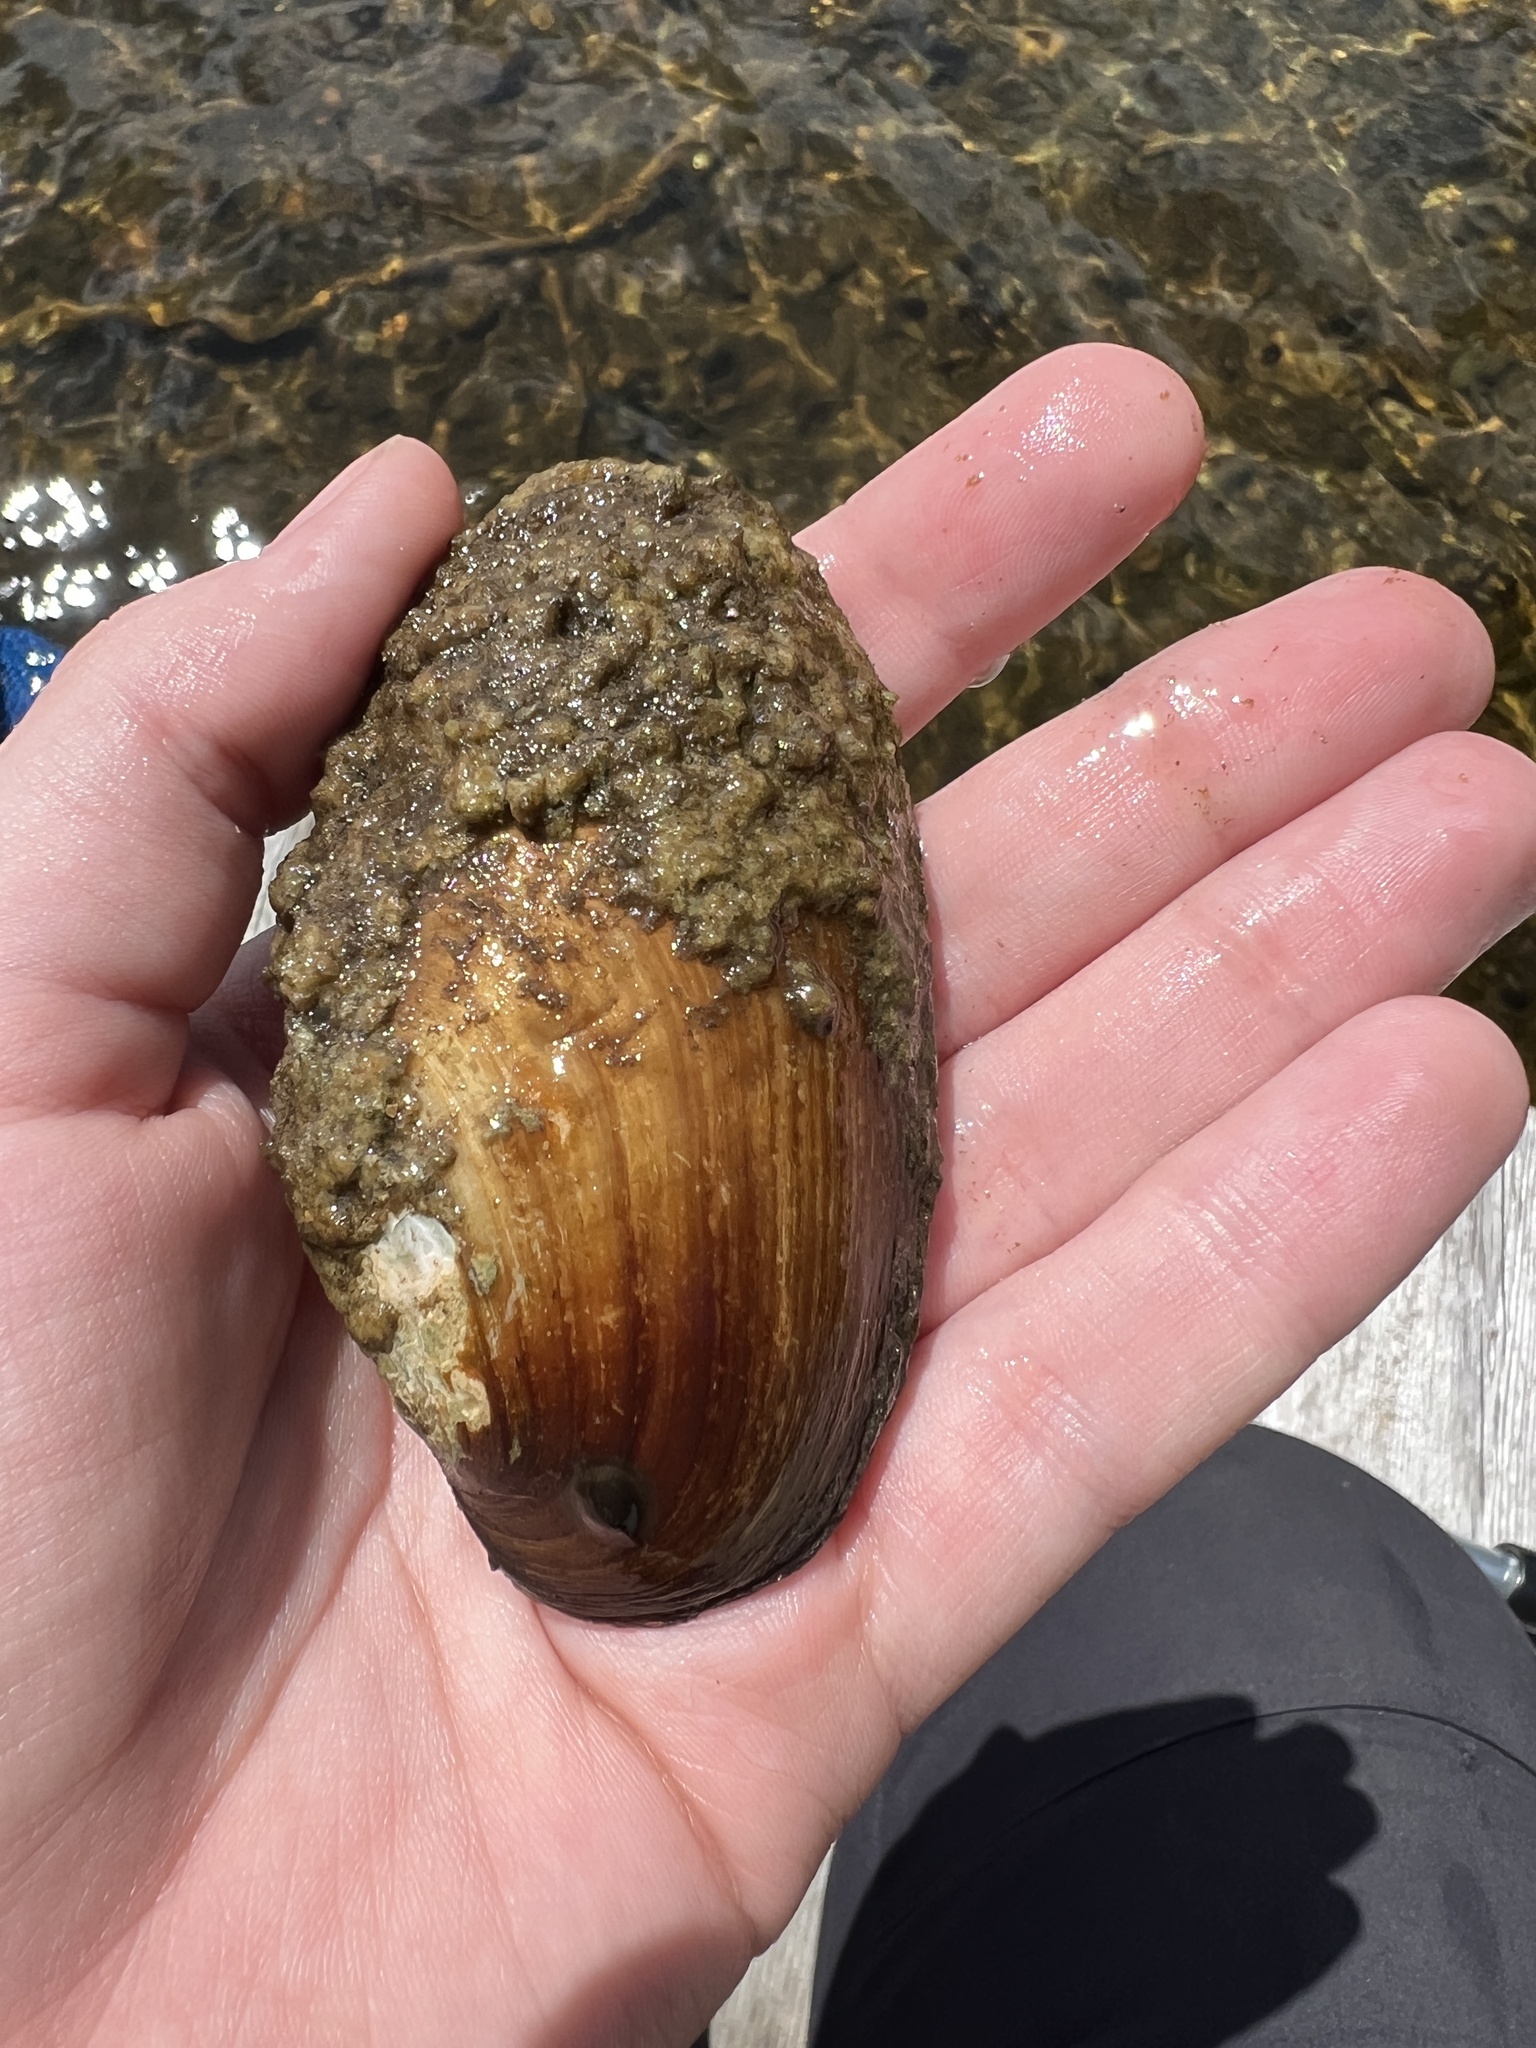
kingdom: Animalia
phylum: Mollusca
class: Bivalvia
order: Unionida
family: Unionidae
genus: Lampsilis
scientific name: Lampsilis siliquoidea
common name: Fatmucket
